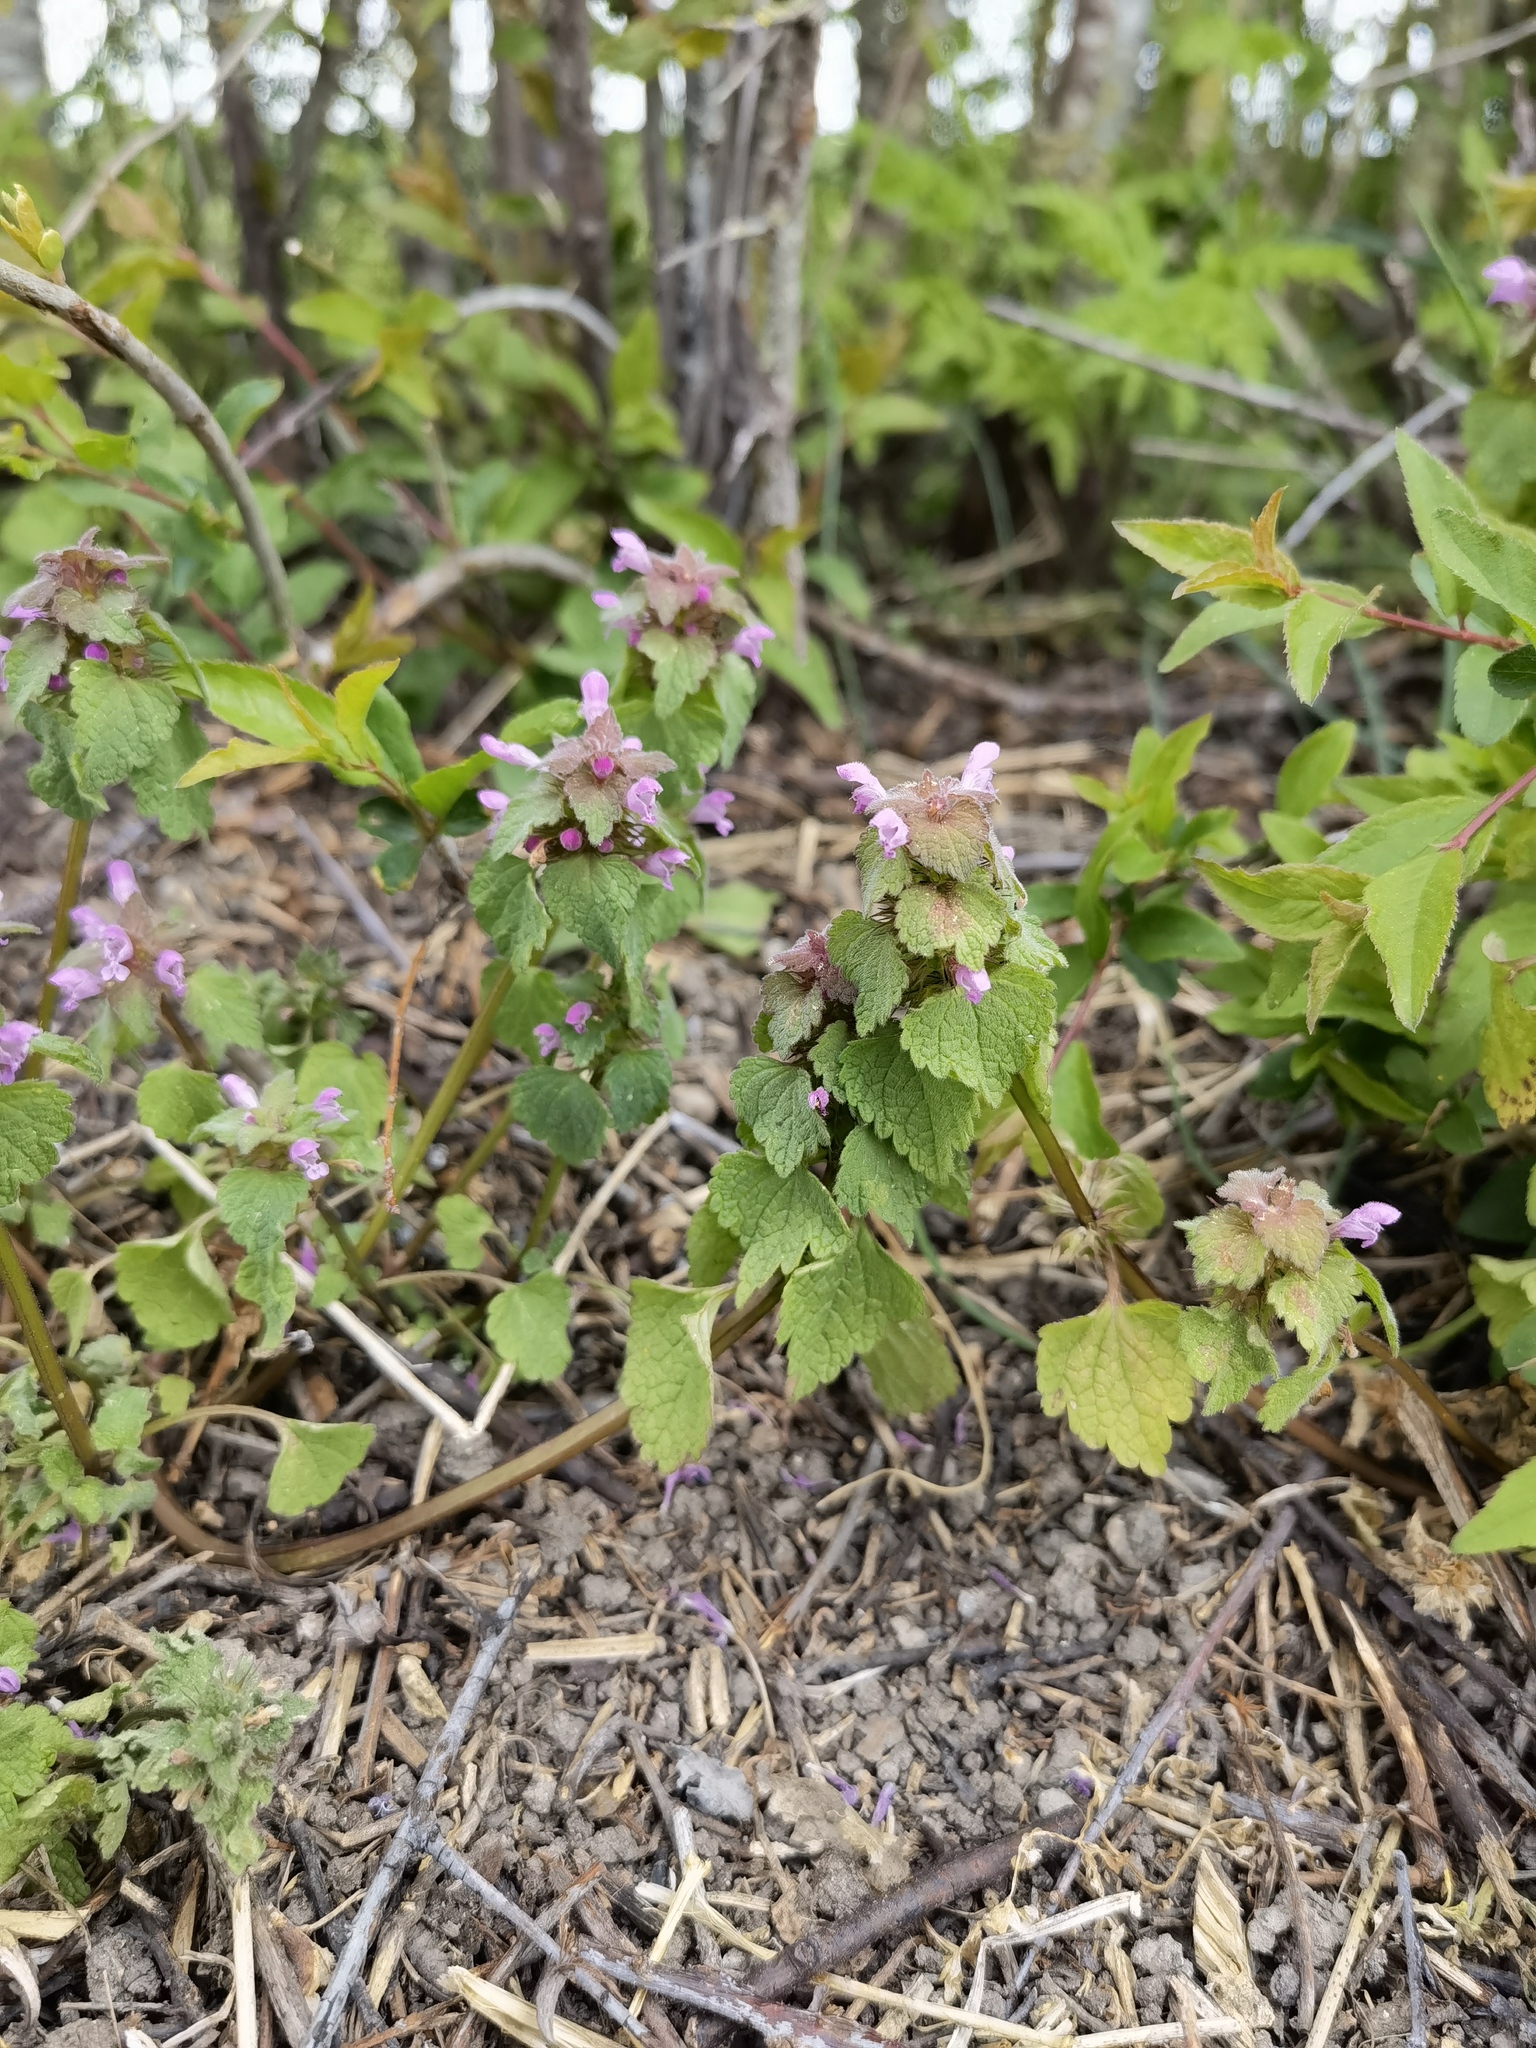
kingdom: Plantae
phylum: Tracheophyta
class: Magnoliopsida
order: Lamiales
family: Lamiaceae
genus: Lamium
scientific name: Lamium purpureum
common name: Red dead-nettle
